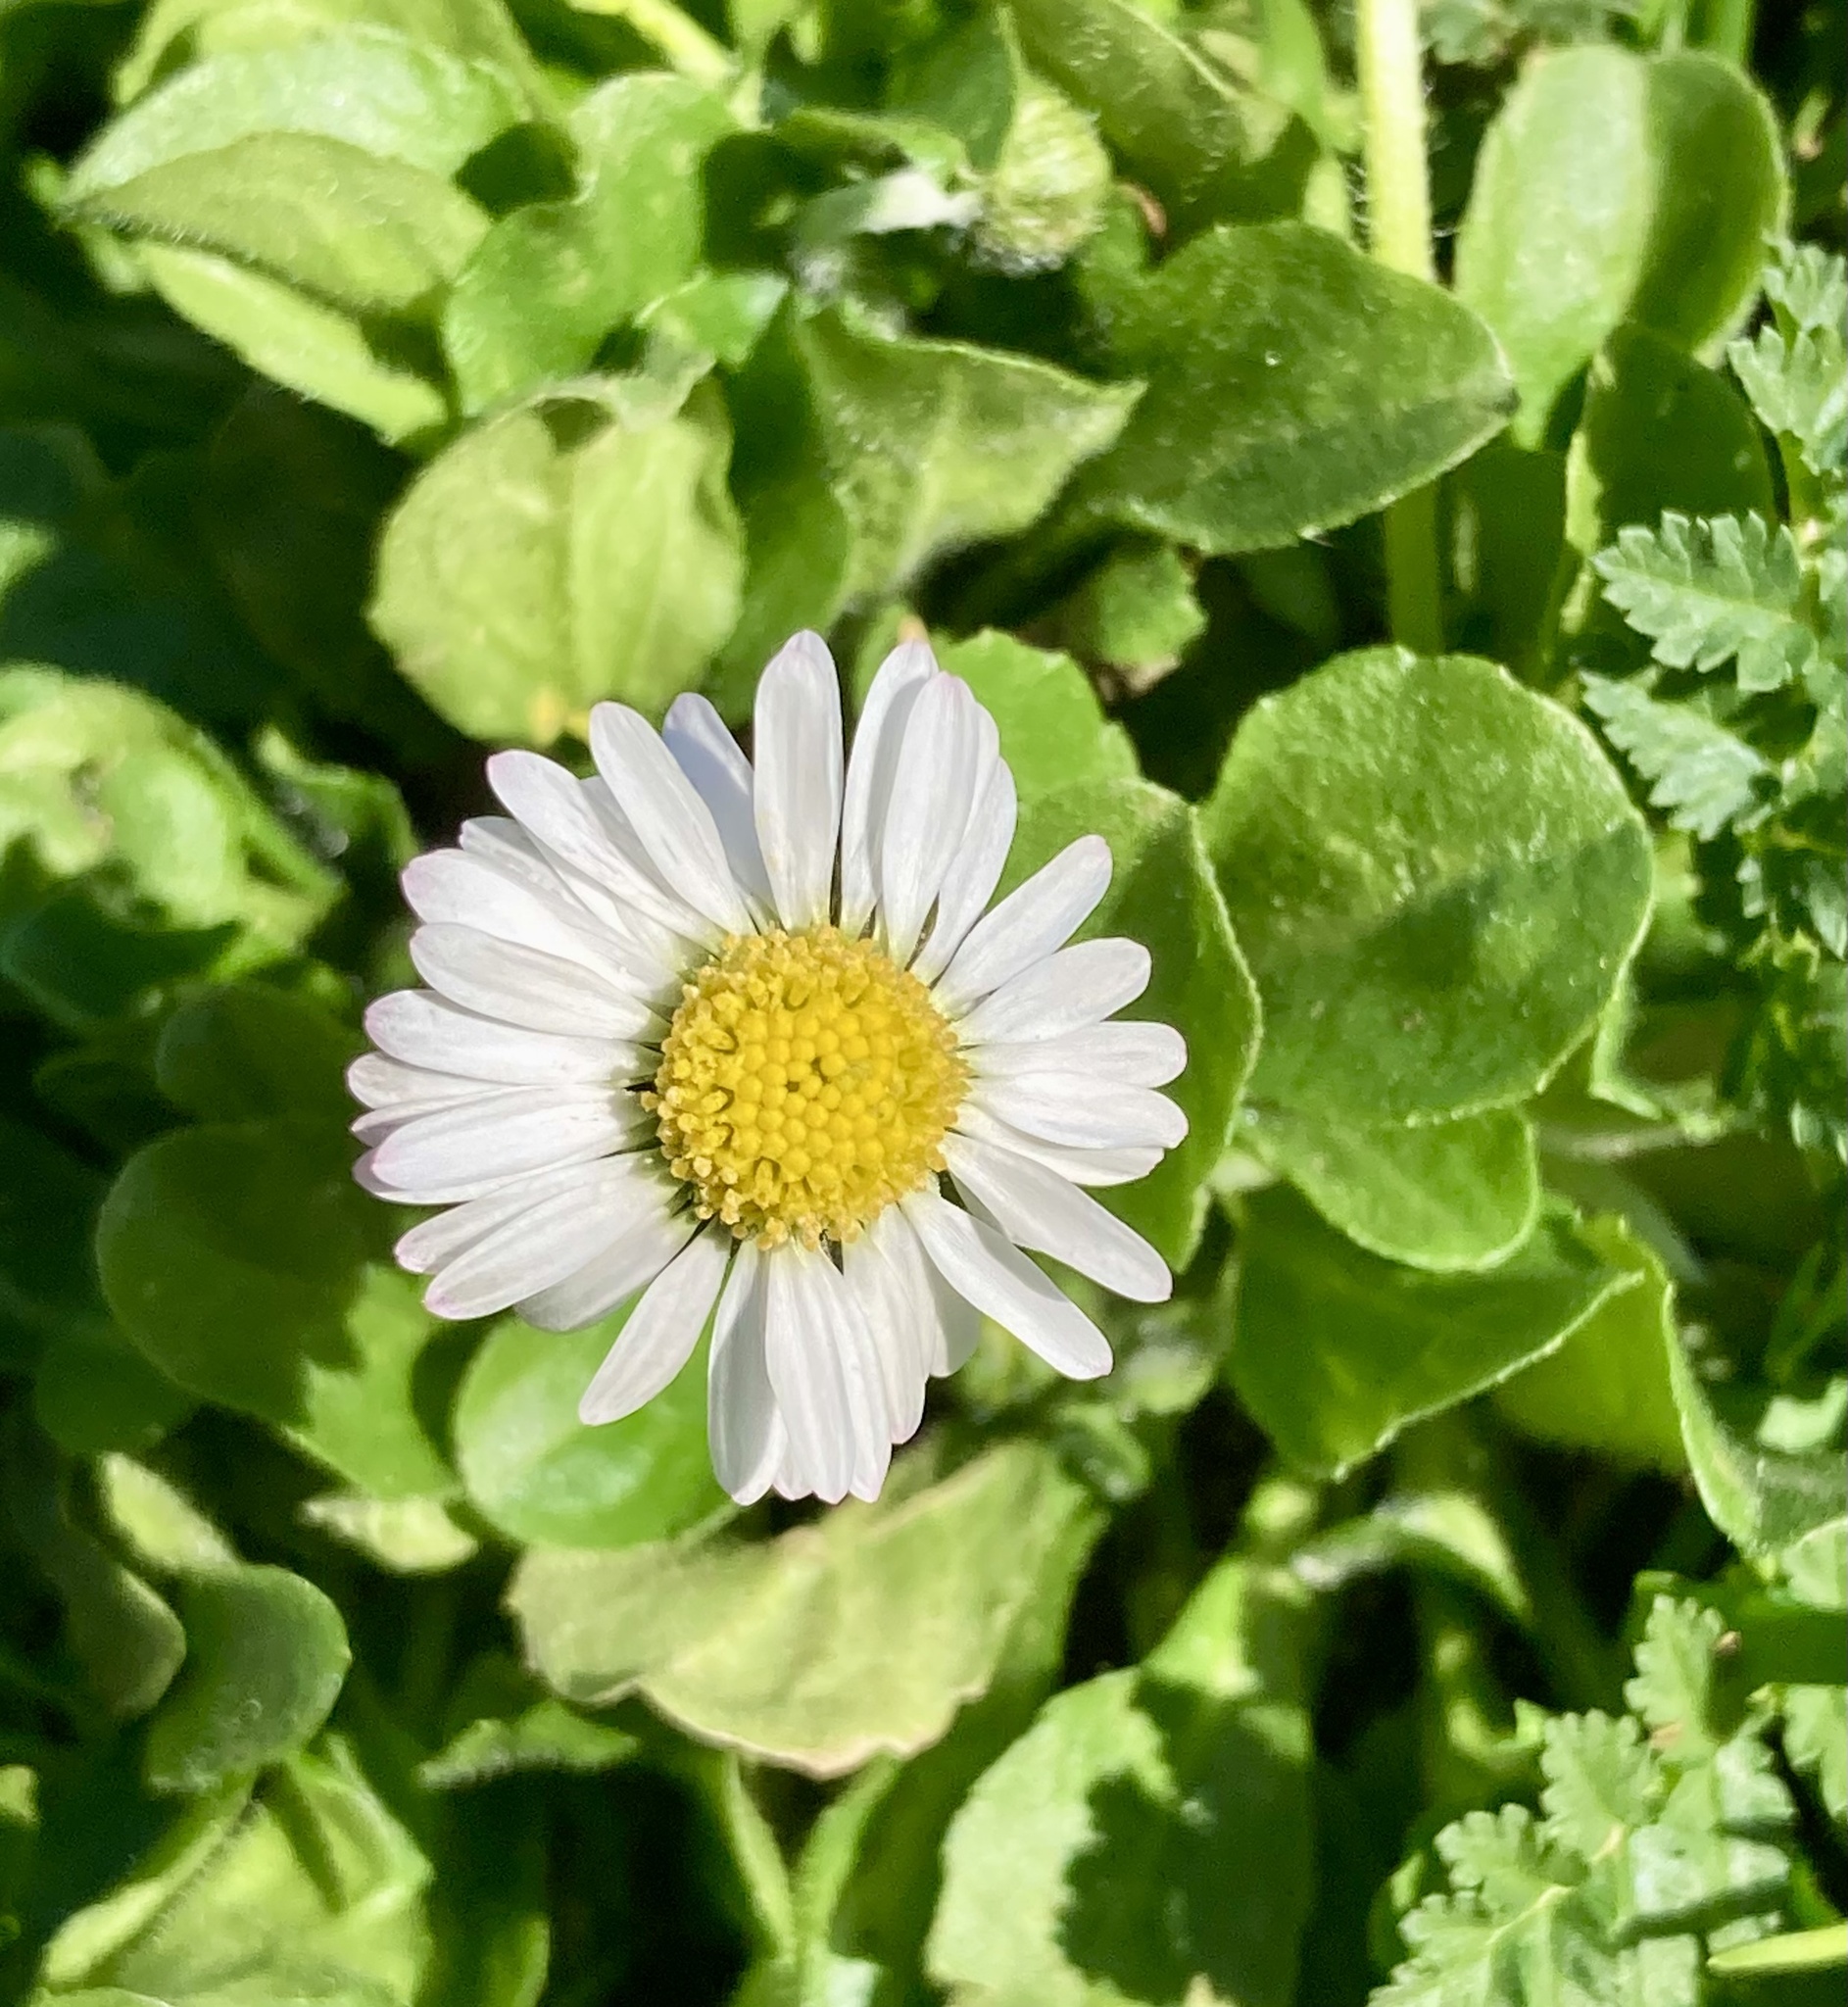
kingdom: Plantae
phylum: Tracheophyta
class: Magnoliopsida
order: Asterales
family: Asteraceae
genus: Bellis
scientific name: Bellis perennis
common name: Lawndaisy
